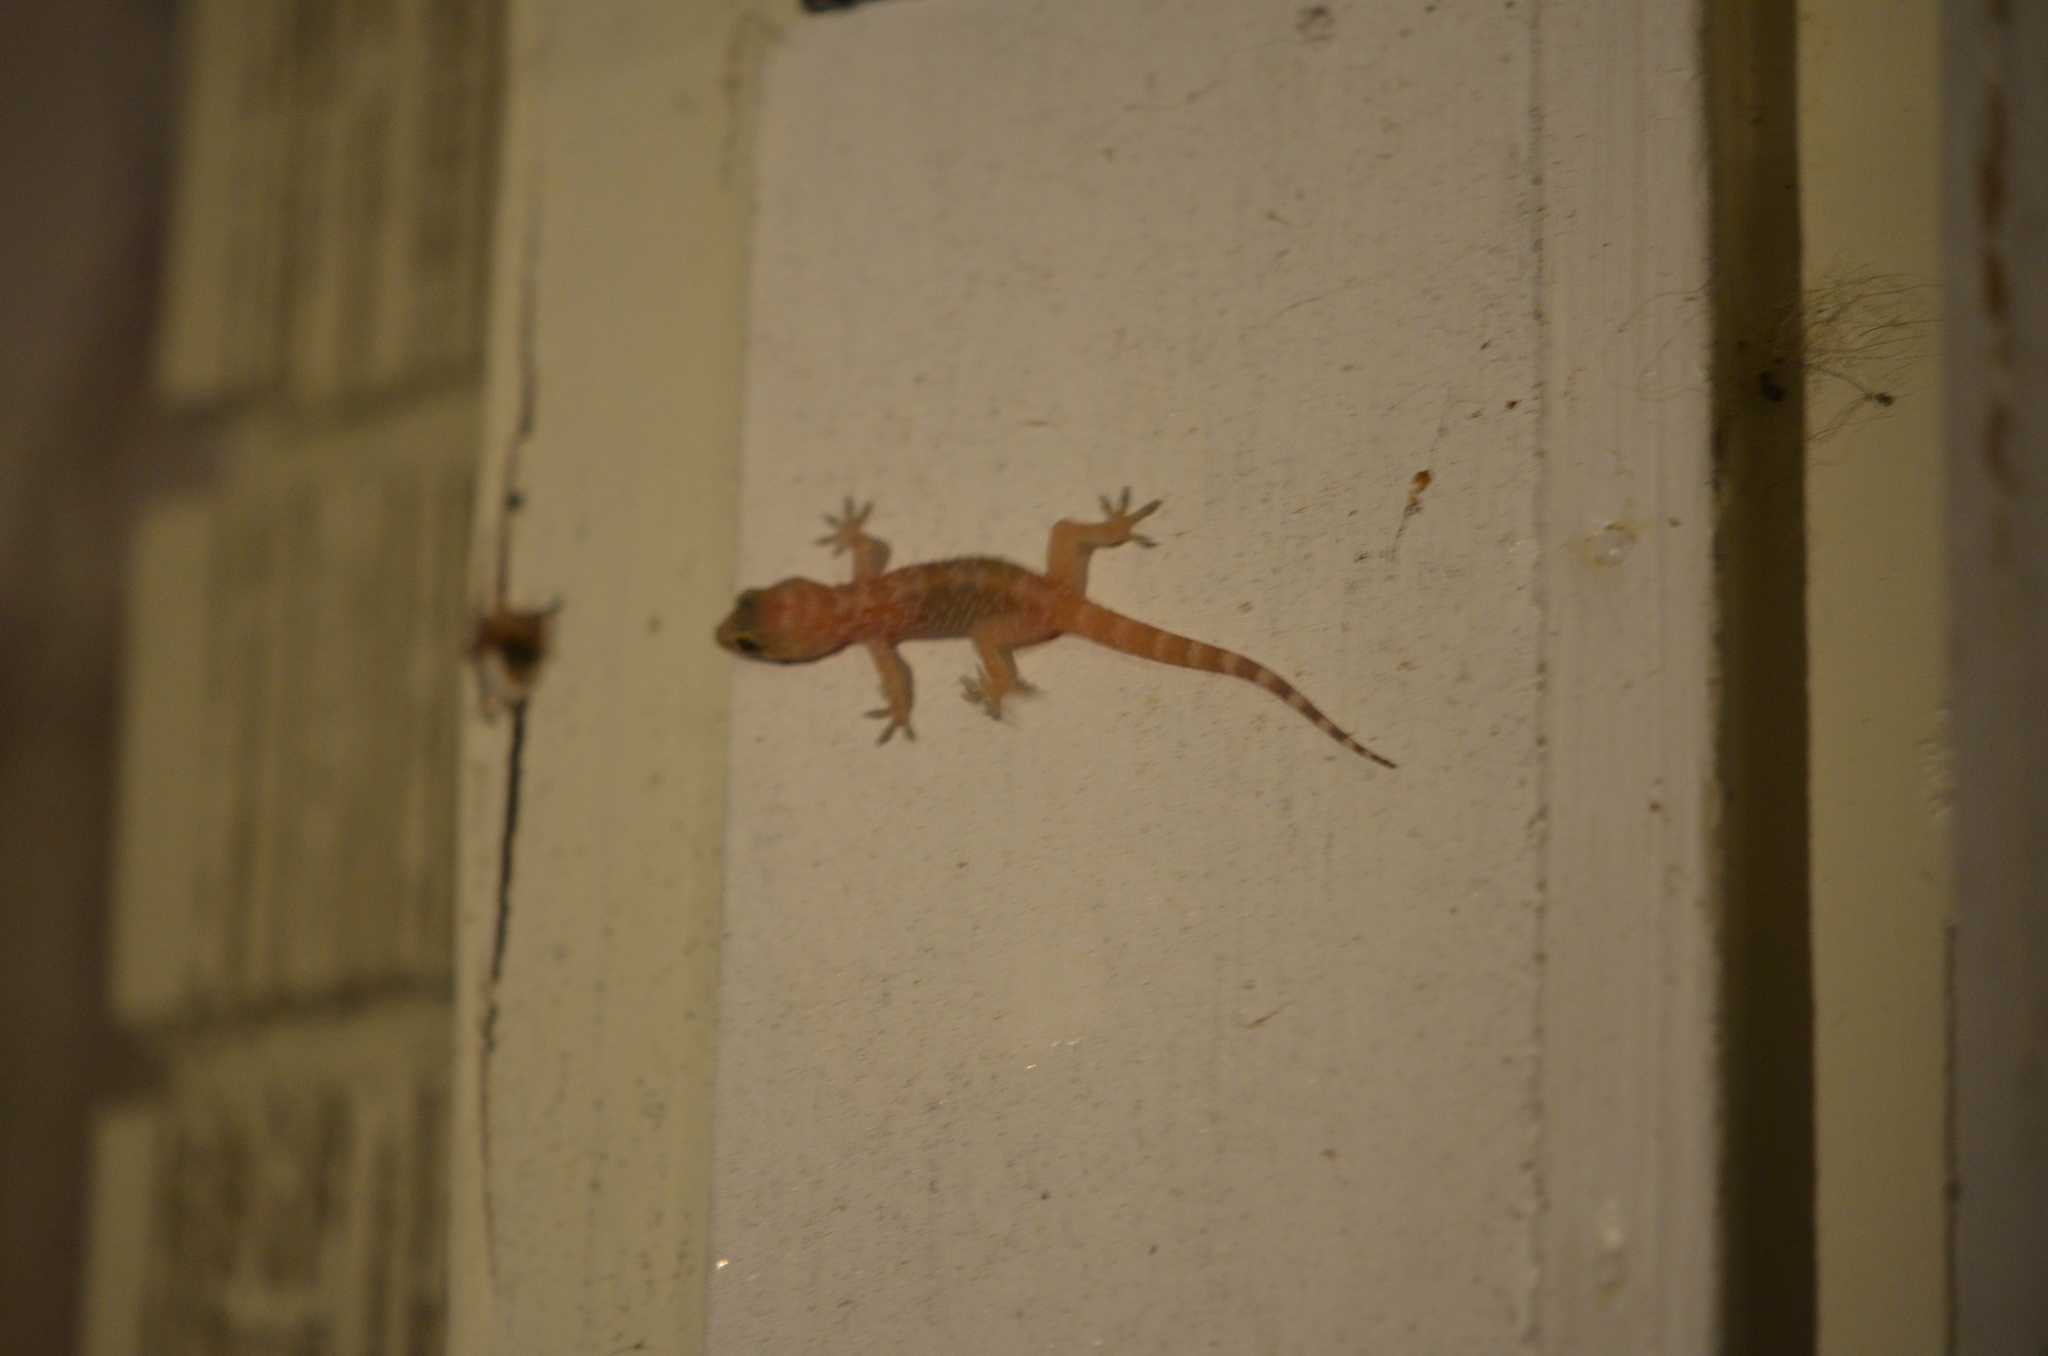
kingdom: Animalia
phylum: Chordata
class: Squamata
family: Gekkonidae
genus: Hemidactylus
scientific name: Hemidactylus turcicus
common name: Turkish gecko
